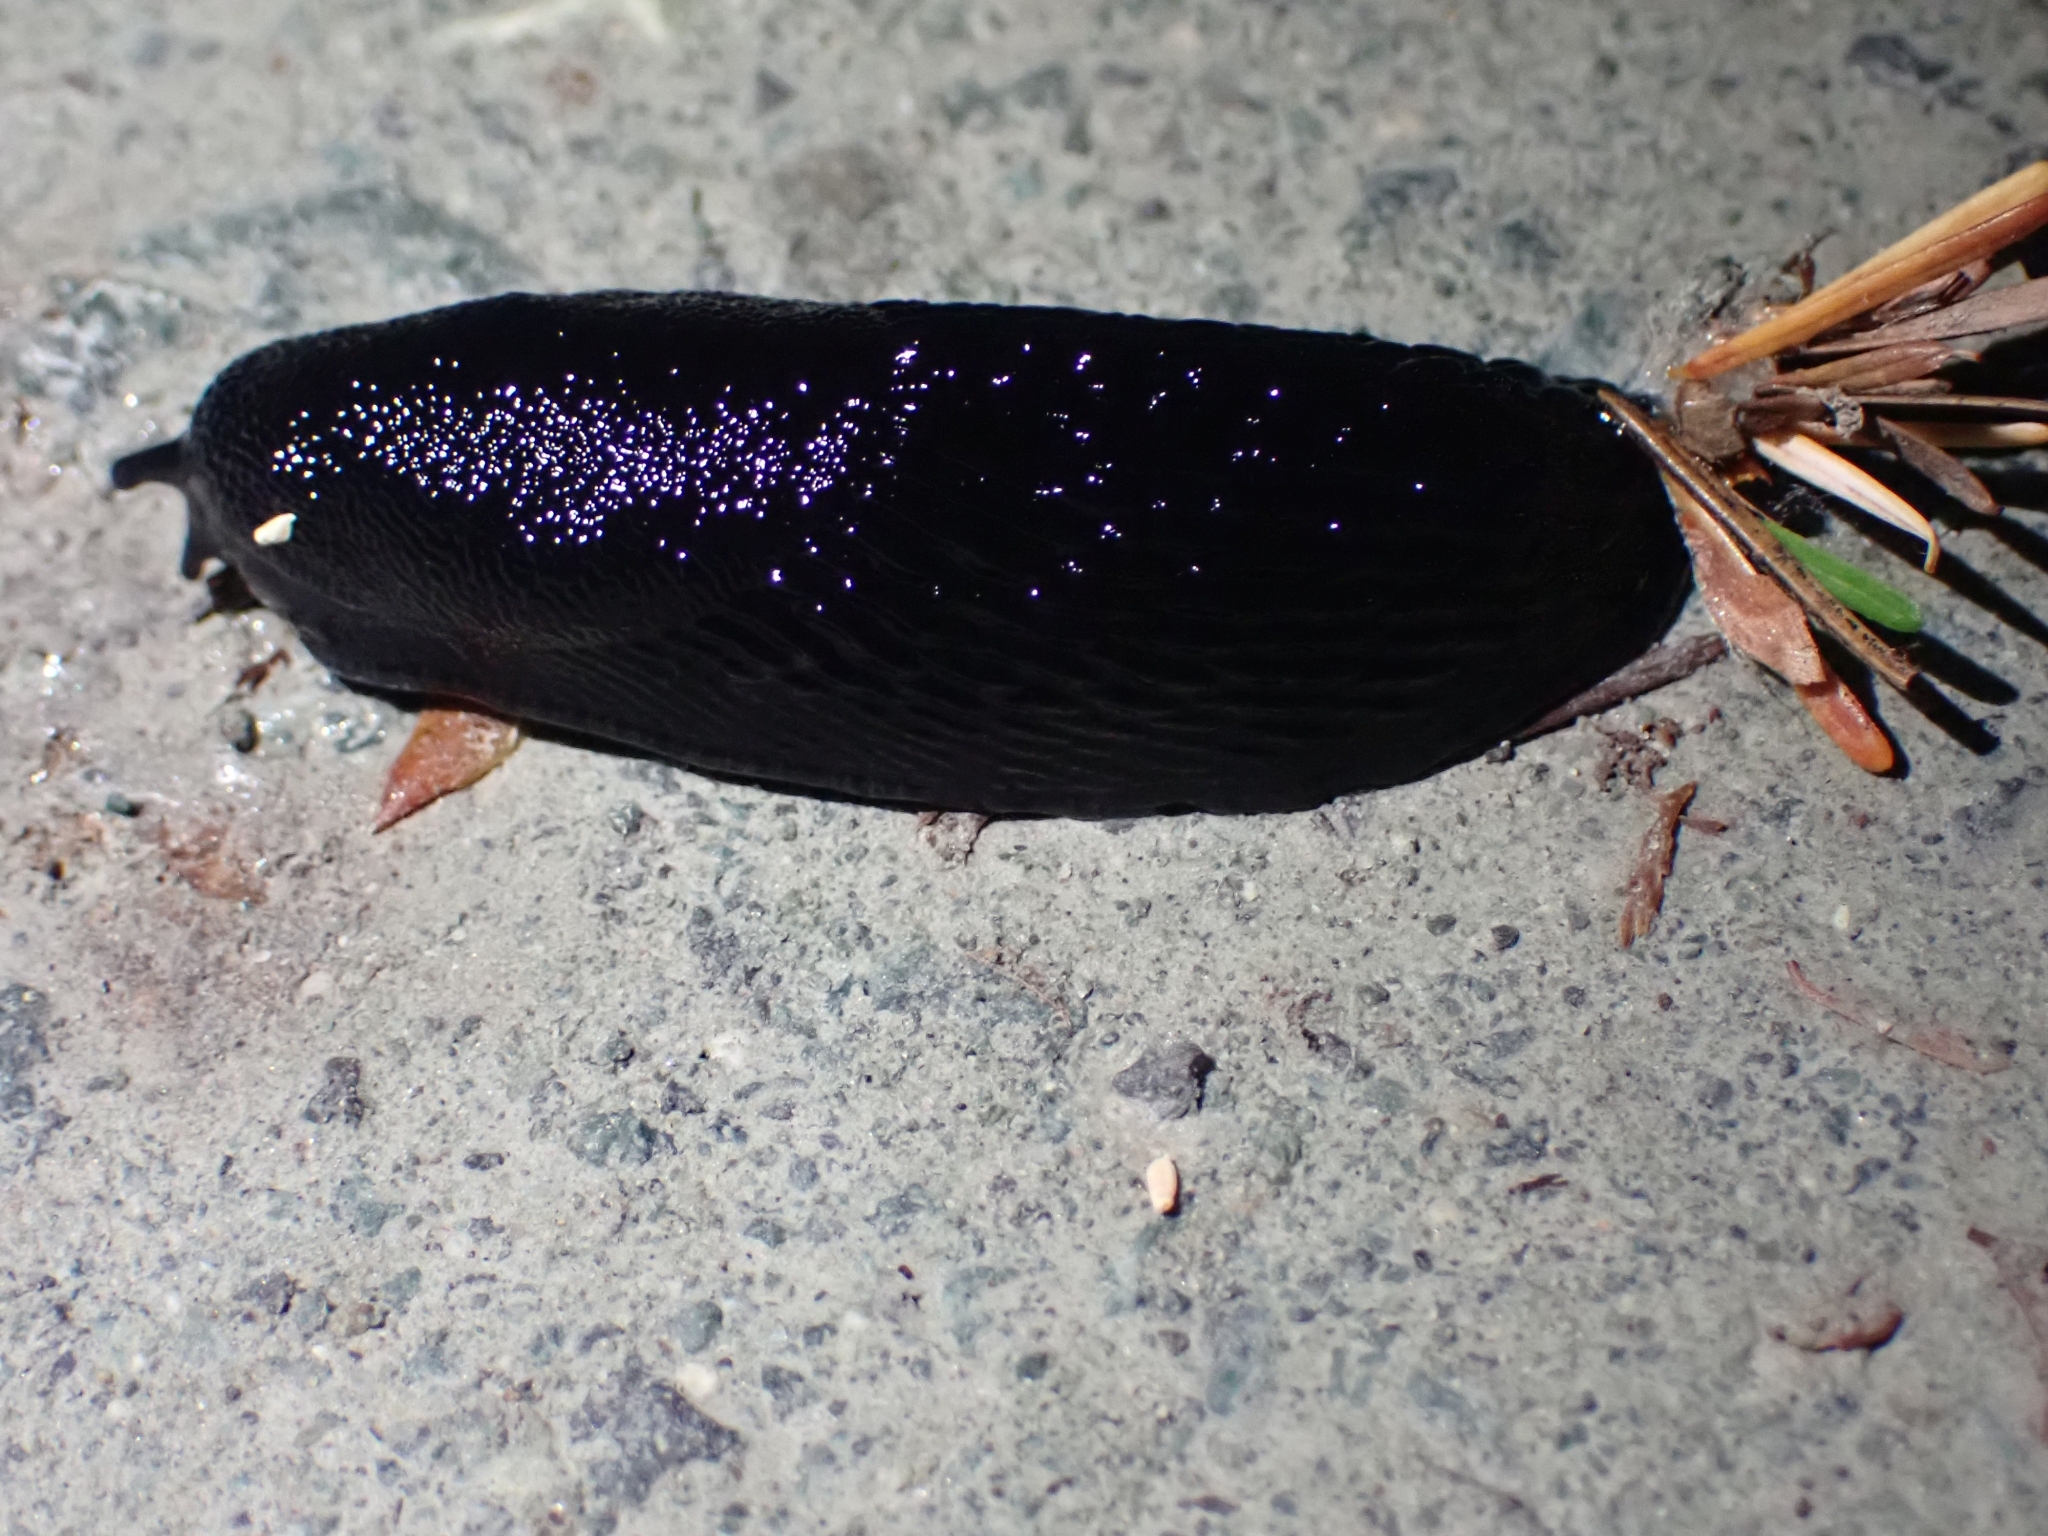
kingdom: Animalia
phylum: Mollusca
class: Gastropoda
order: Stylommatophora
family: Arionidae
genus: Arion
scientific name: Arion
